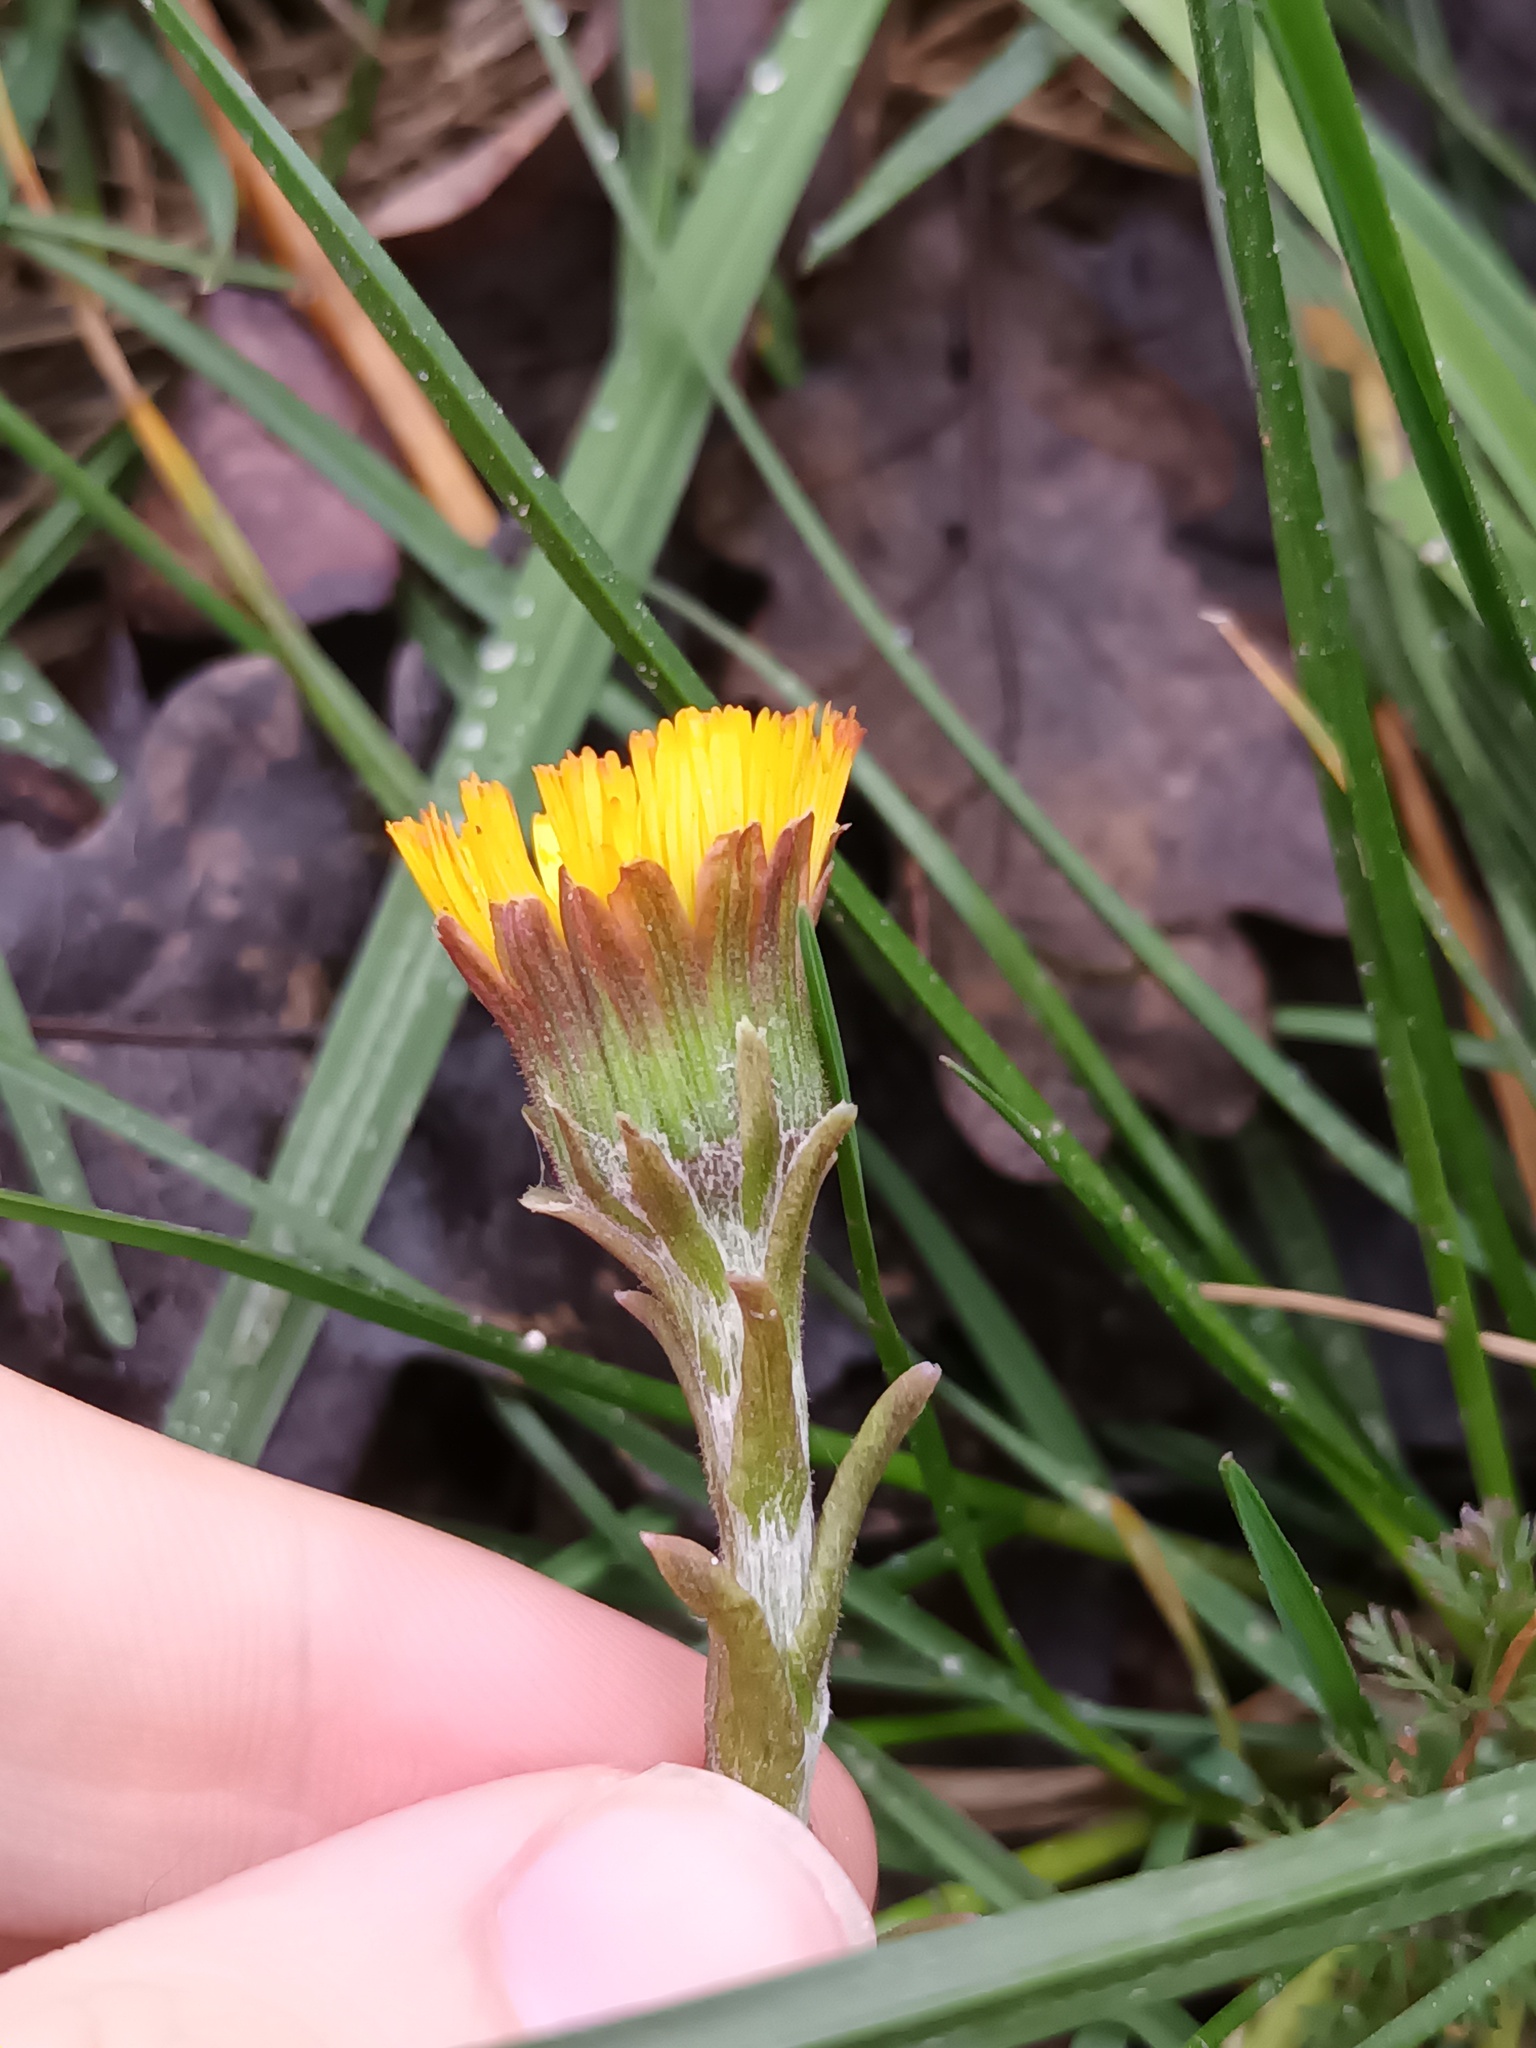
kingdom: Plantae
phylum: Tracheophyta
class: Magnoliopsida
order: Asterales
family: Asteraceae
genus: Tussilago
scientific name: Tussilago farfara
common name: Coltsfoot
